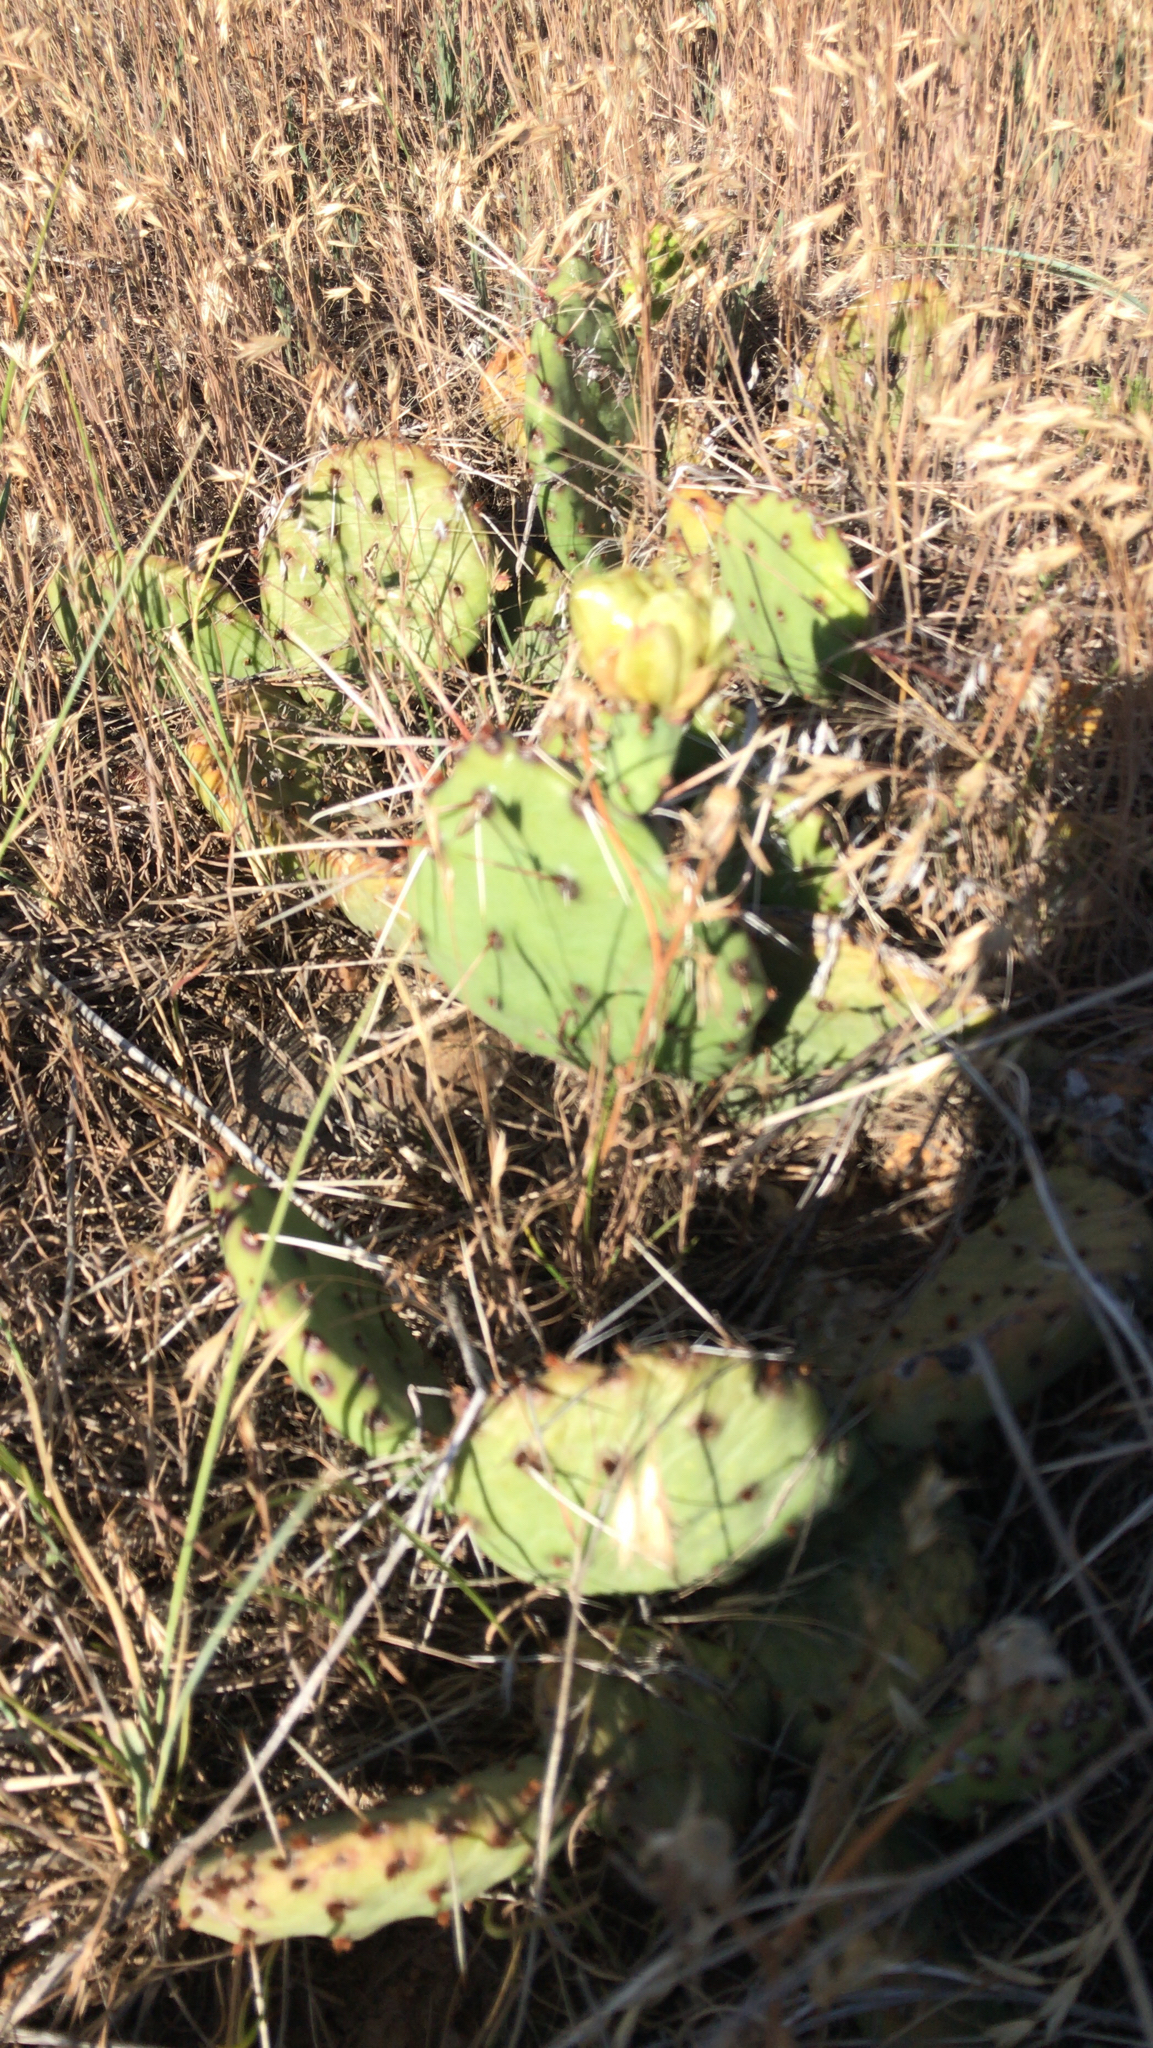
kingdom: Plantae
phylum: Tracheophyta
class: Magnoliopsida
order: Caryophyllales
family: Cactaceae
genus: Opuntia
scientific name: Opuntia macrorhiza
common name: Grassland pricklypear
